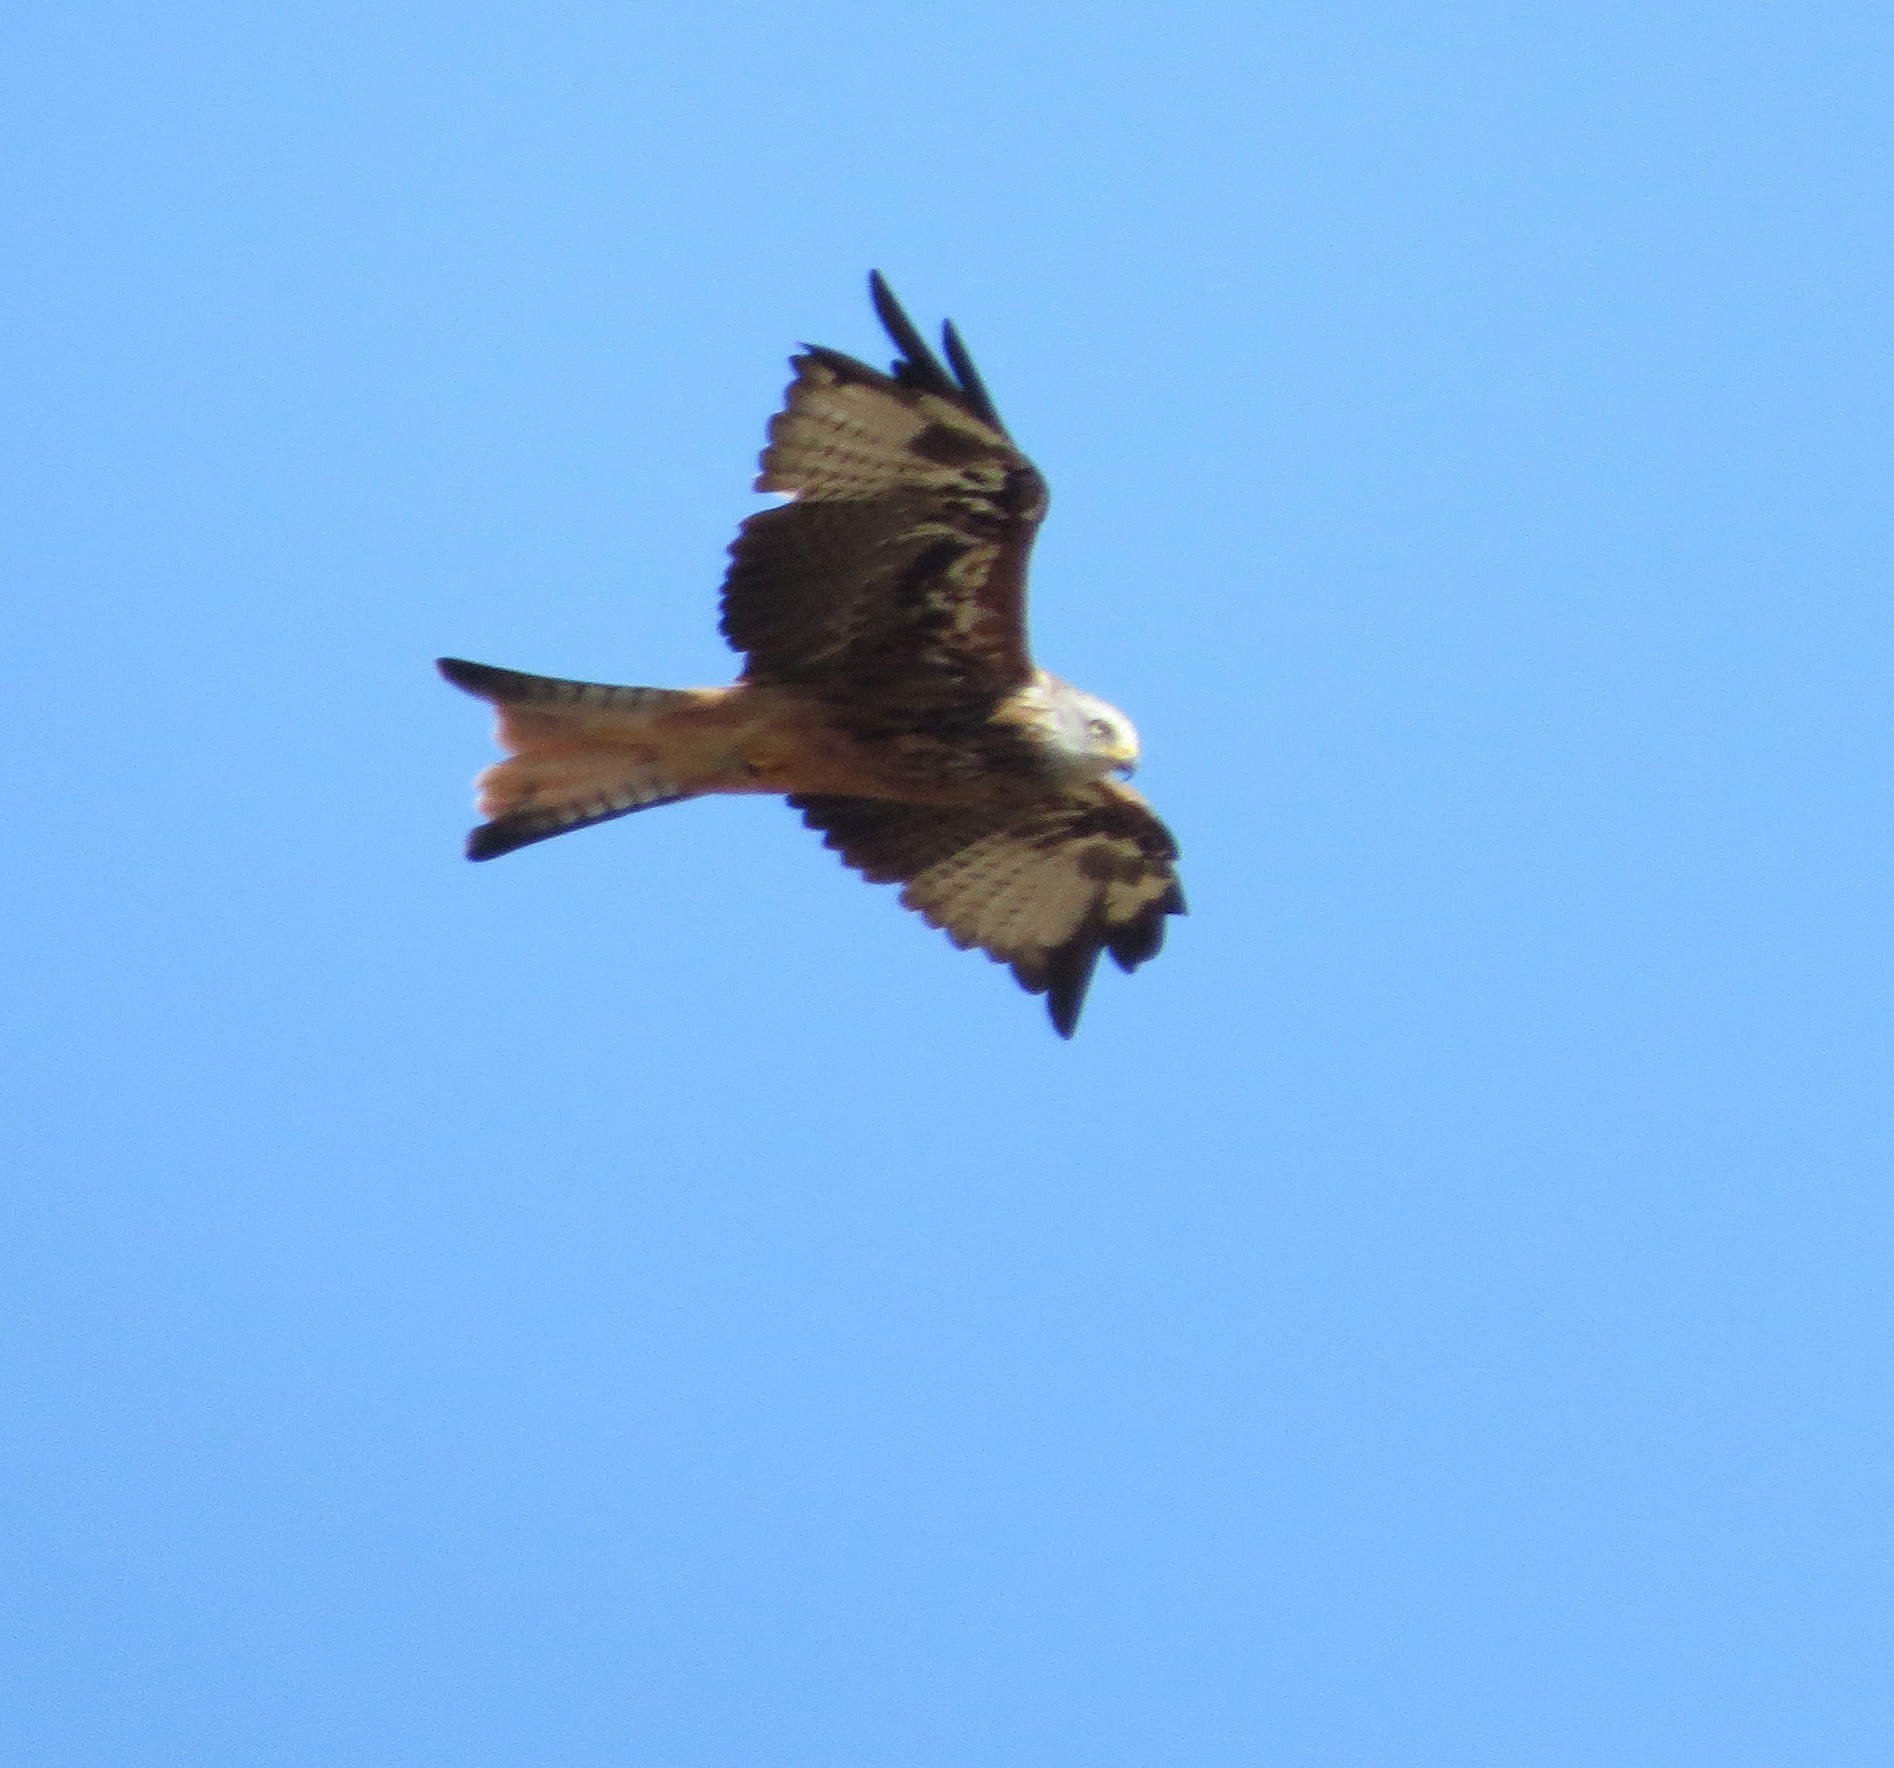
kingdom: Animalia
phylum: Chordata
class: Aves
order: Accipitriformes
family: Accipitridae
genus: Milvus
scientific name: Milvus milvus
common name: Red kite
